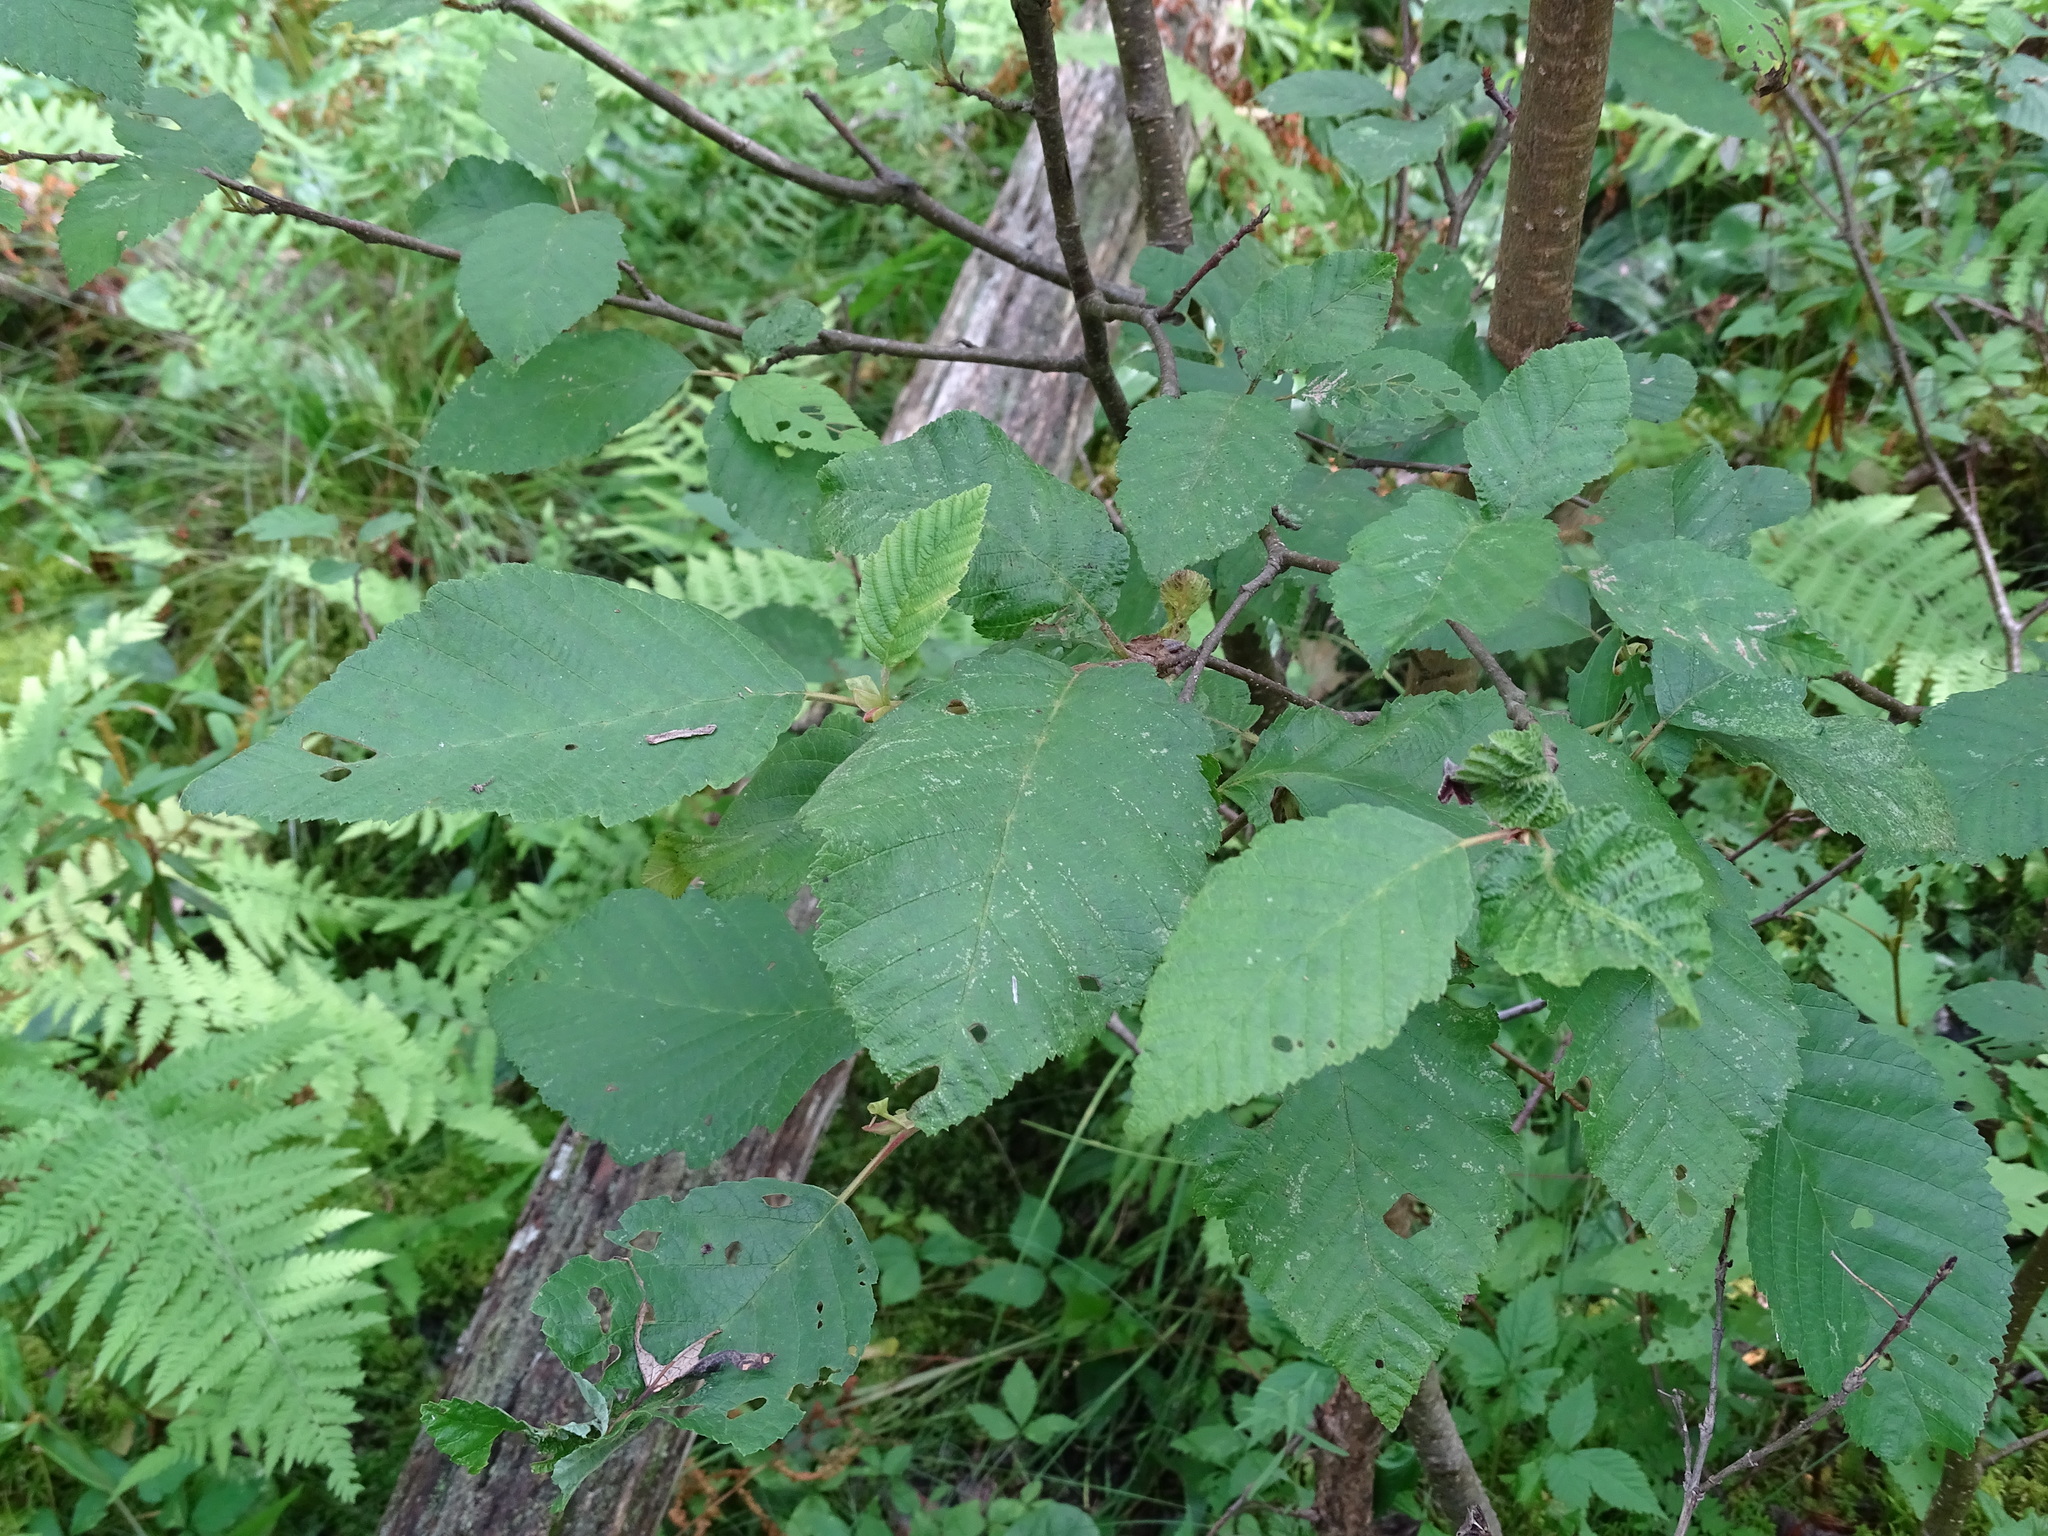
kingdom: Plantae
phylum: Tracheophyta
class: Magnoliopsida
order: Fagales
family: Betulaceae
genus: Alnus
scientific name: Alnus incana
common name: Grey alder
